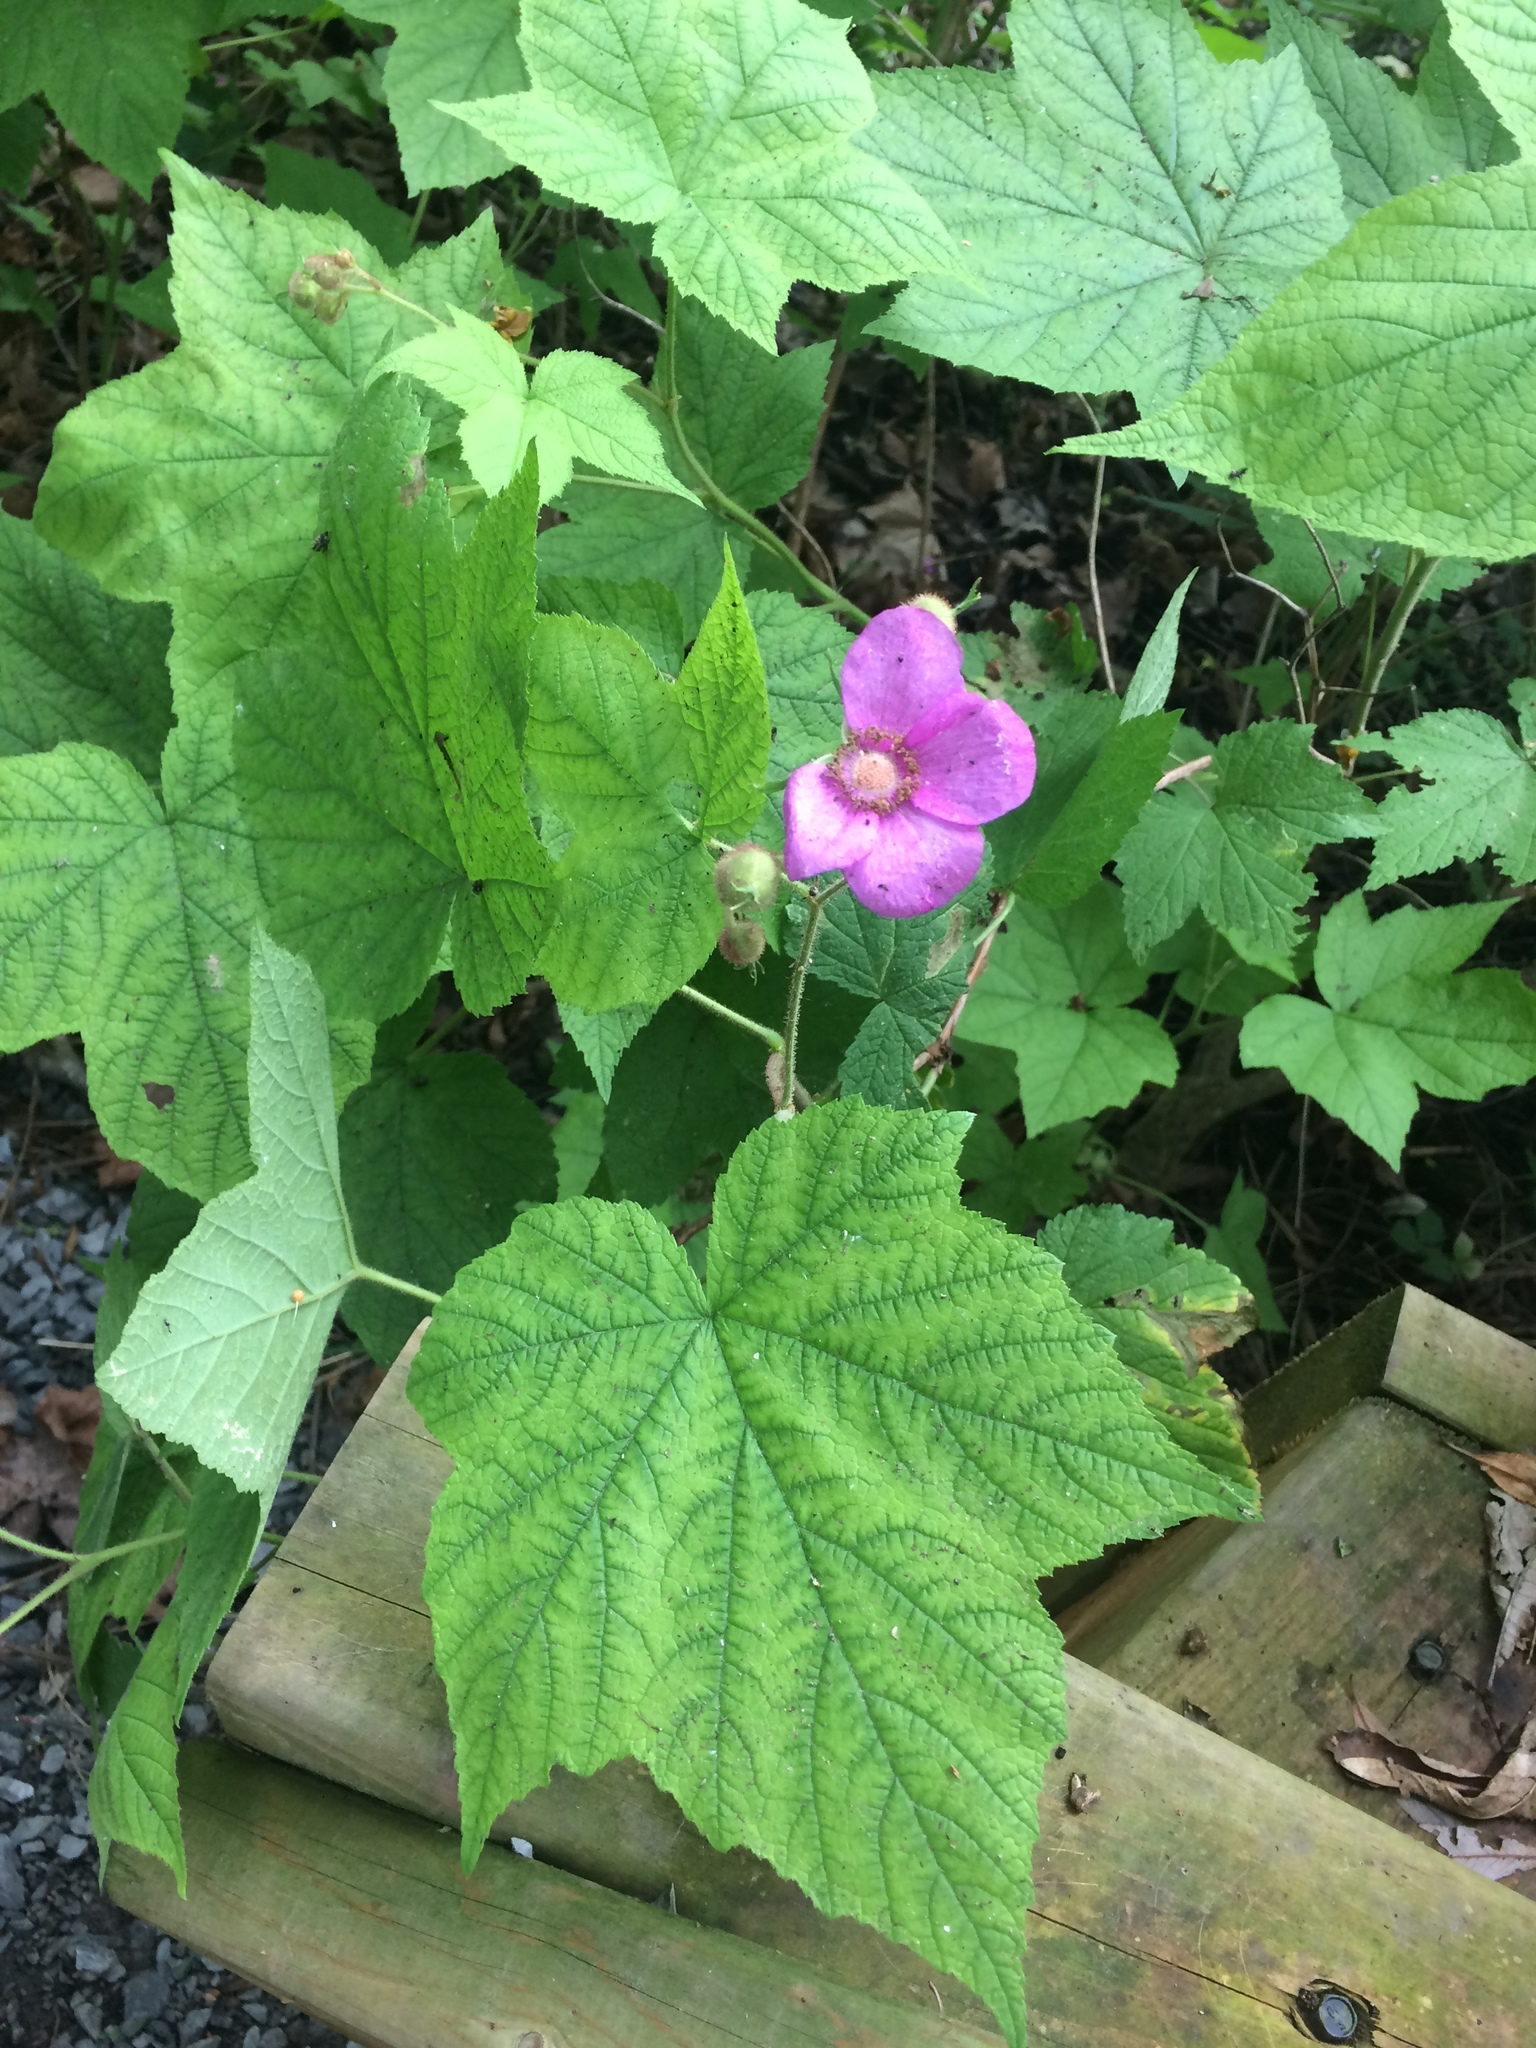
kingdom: Plantae
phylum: Tracheophyta
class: Magnoliopsida
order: Rosales
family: Rosaceae
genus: Rubus
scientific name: Rubus odoratus
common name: Purple-flowered raspberry
